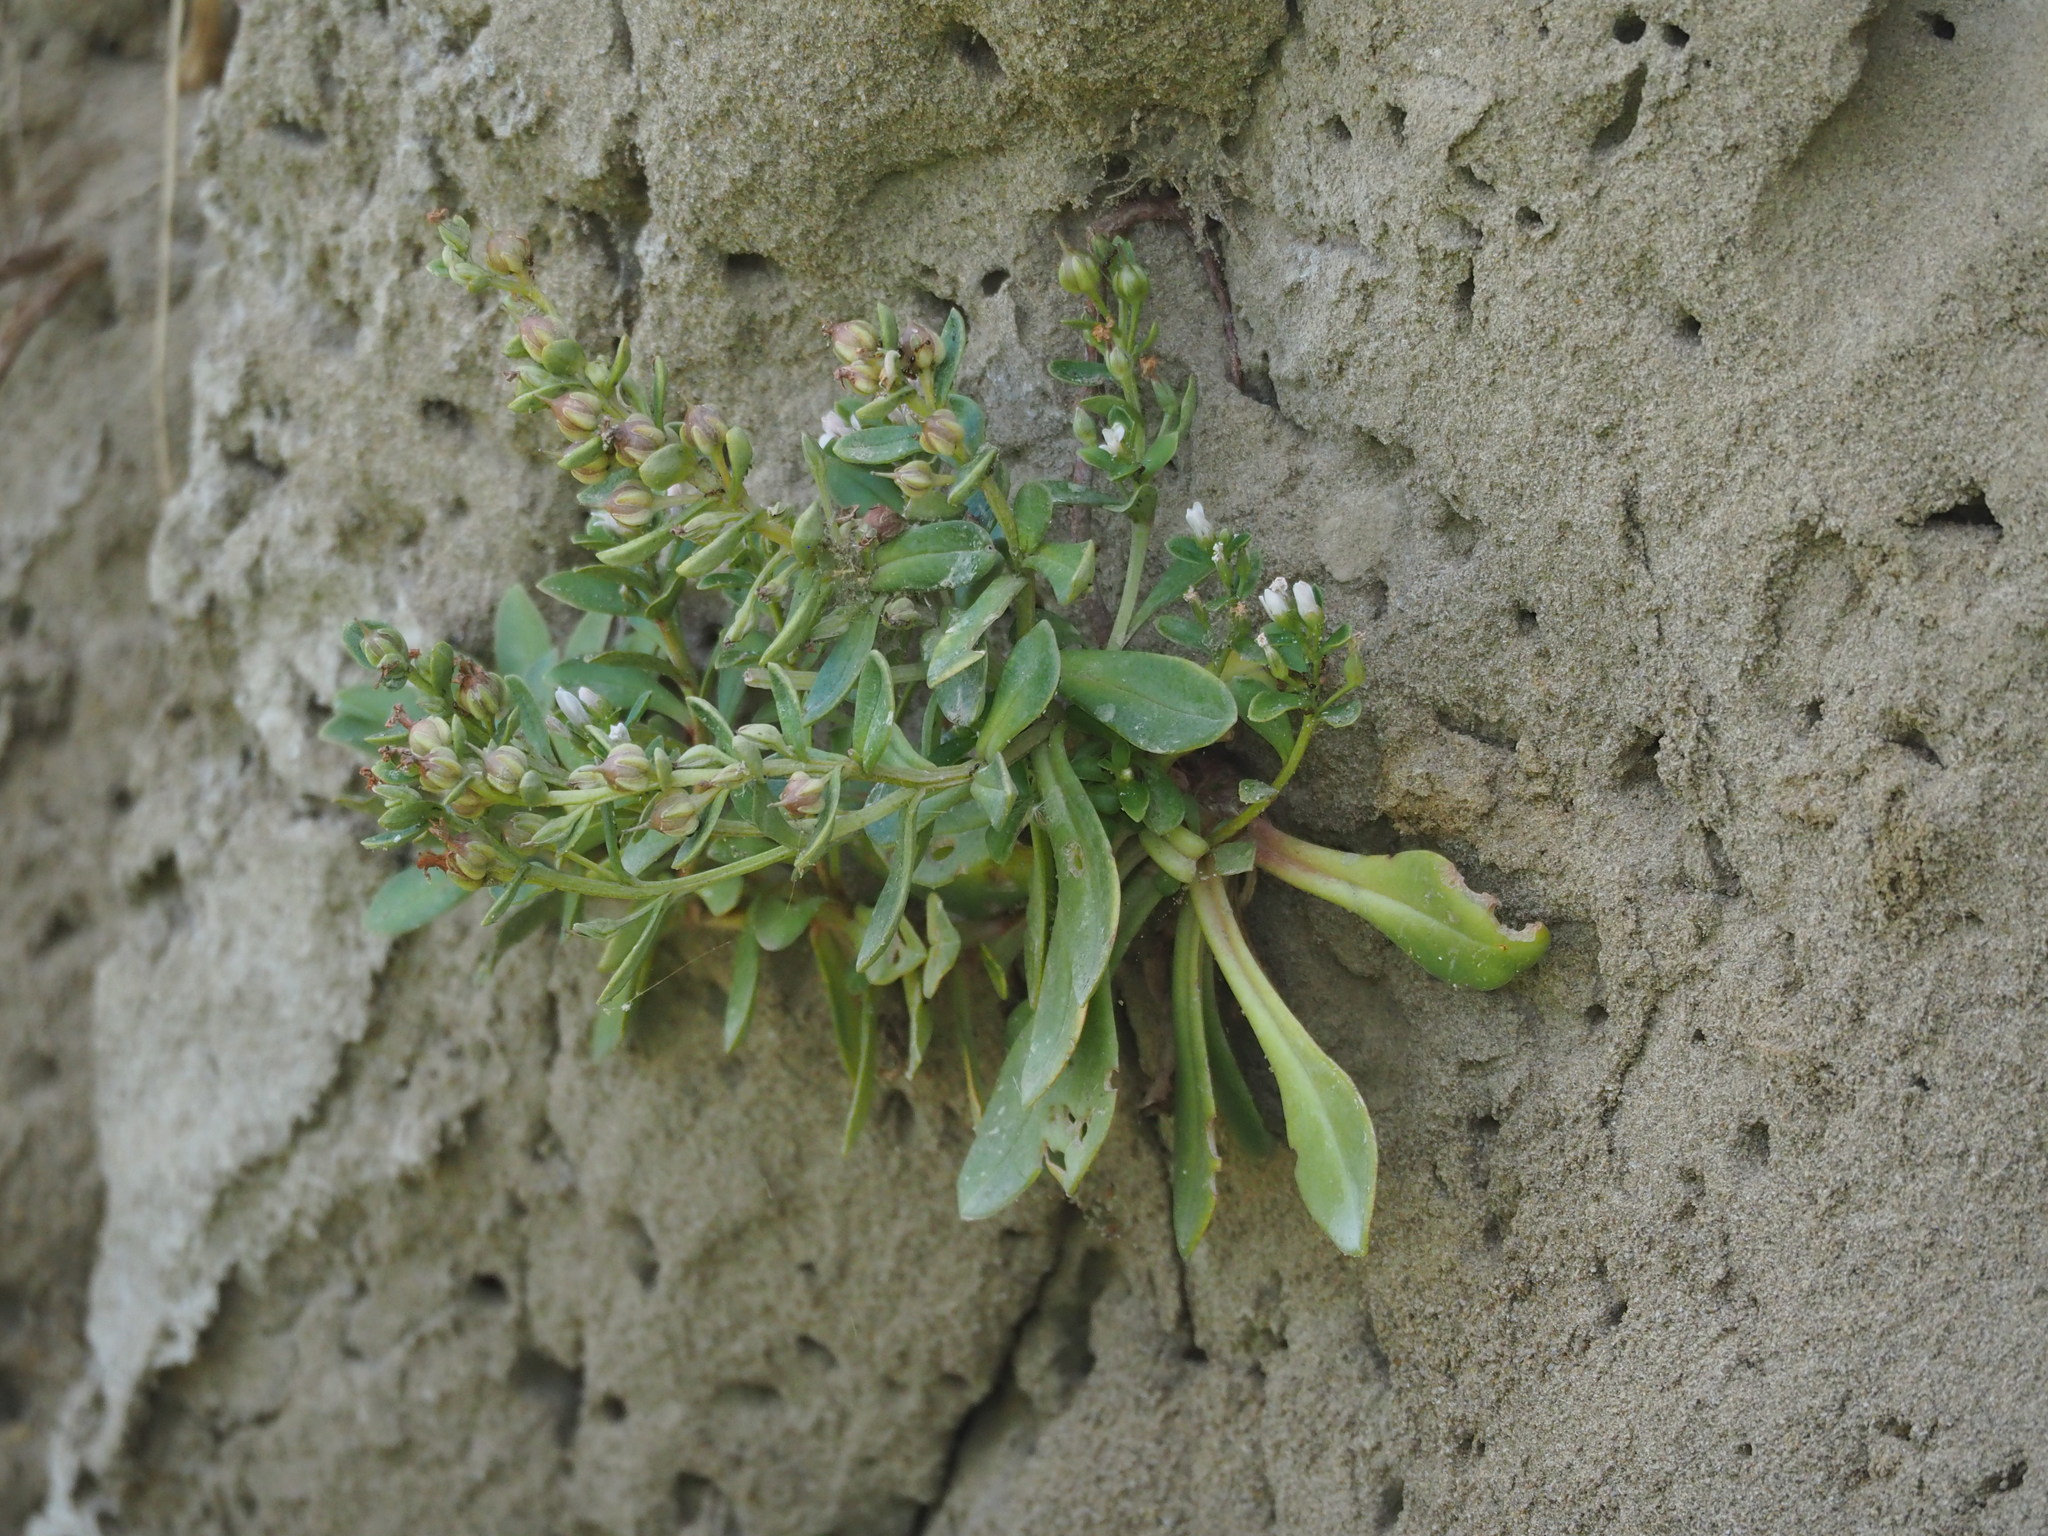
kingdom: Plantae
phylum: Tracheophyta
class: Magnoliopsida
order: Ericales
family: Primulaceae
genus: Lysimachia
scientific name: Lysimachia mauritiana
